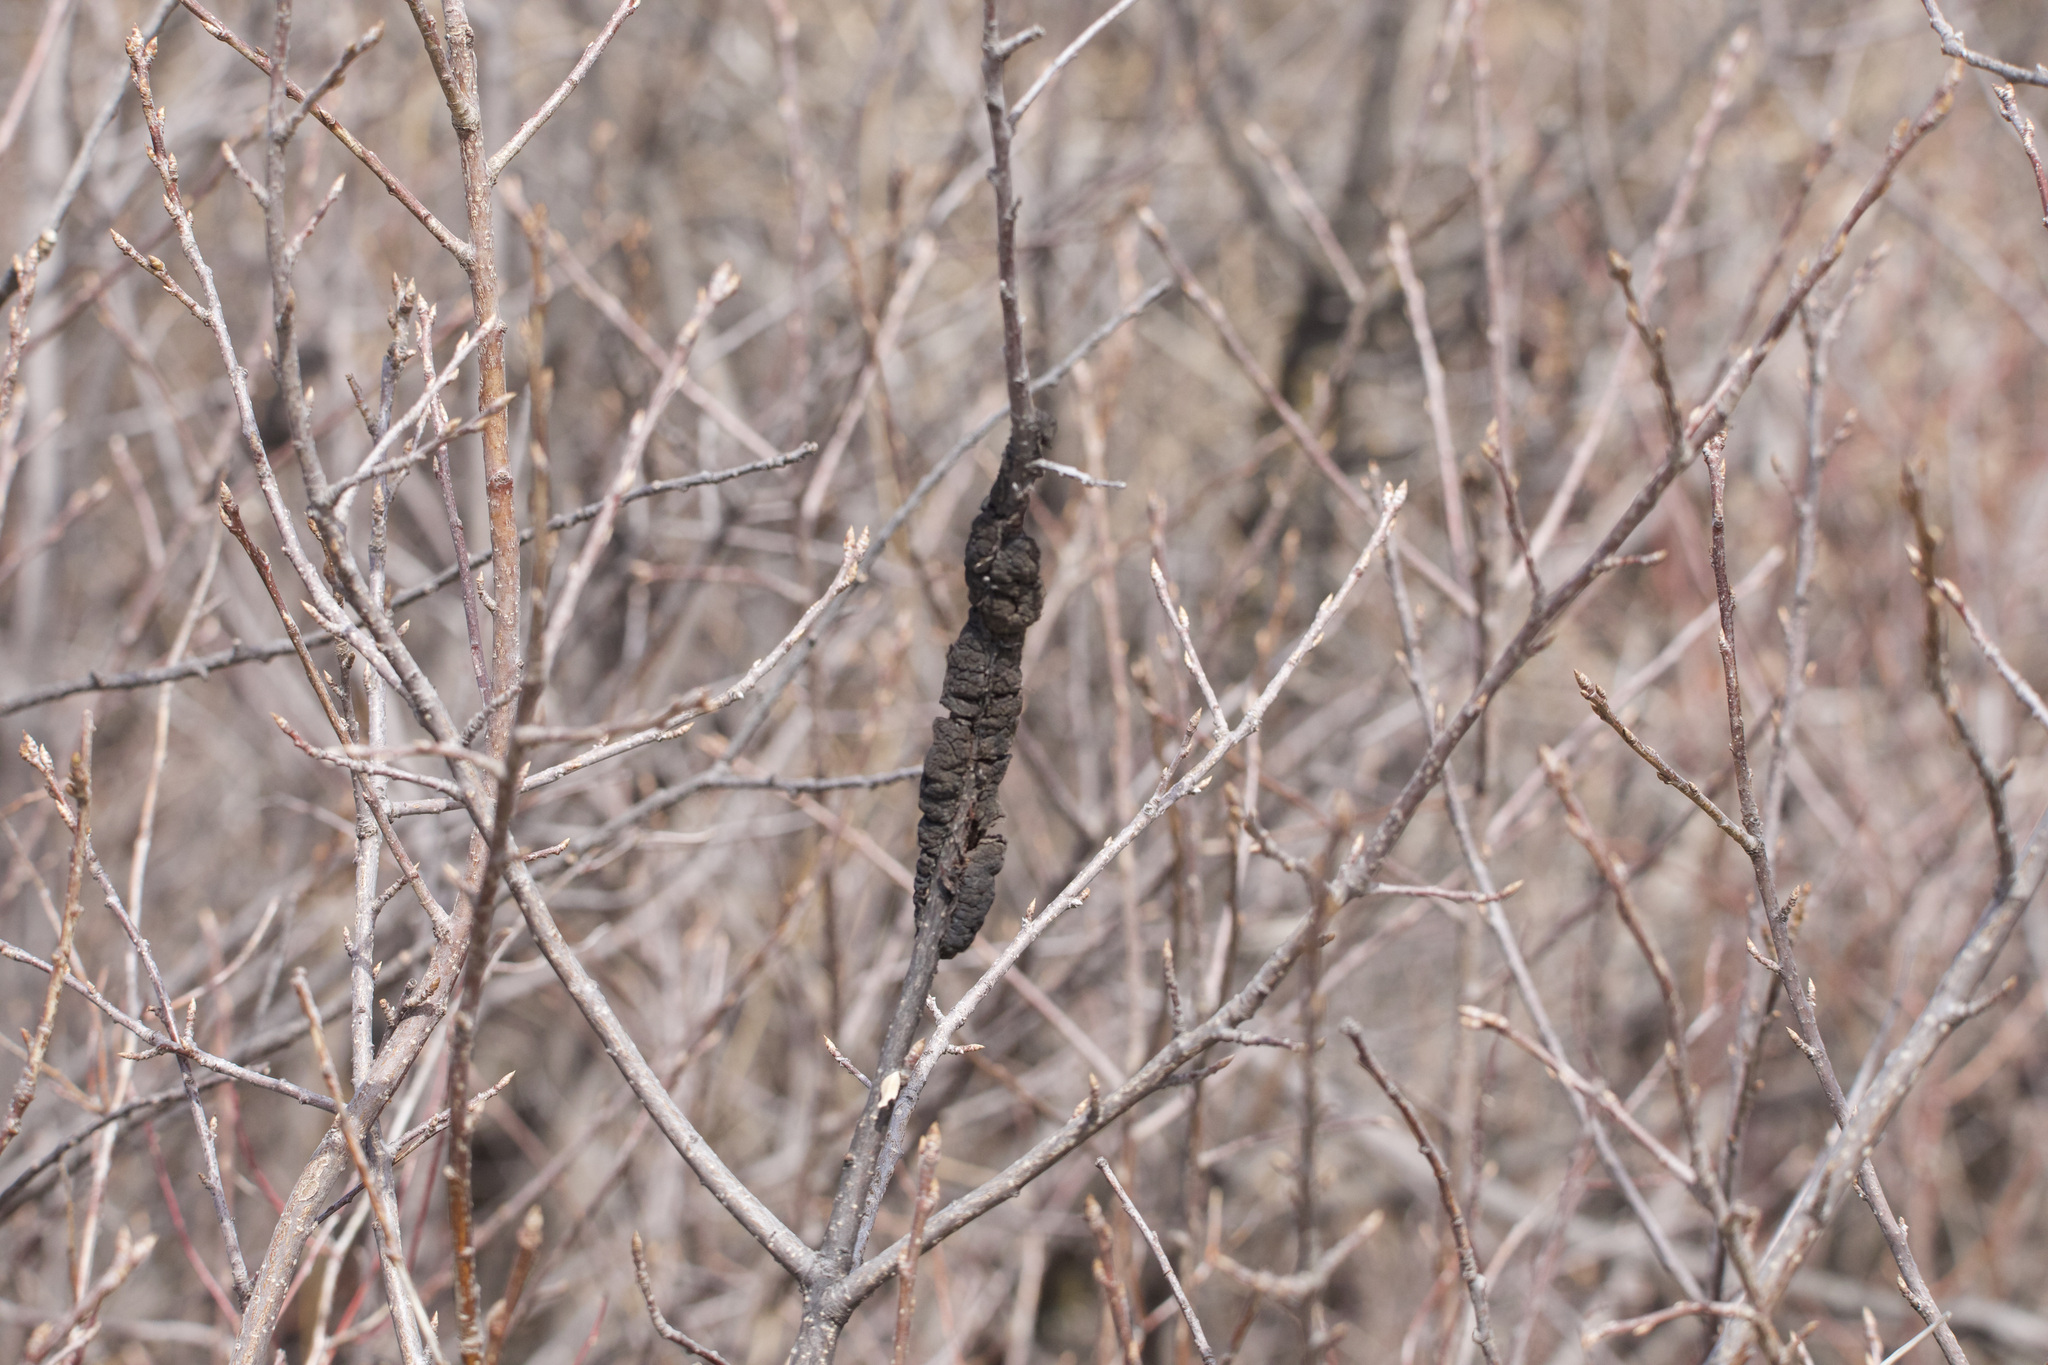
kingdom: Fungi
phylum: Ascomycota
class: Dothideomycetes
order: Venturiales
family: Venturiaceae
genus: Apiosporina
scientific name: Apiosporina morbosa
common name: Black knot
